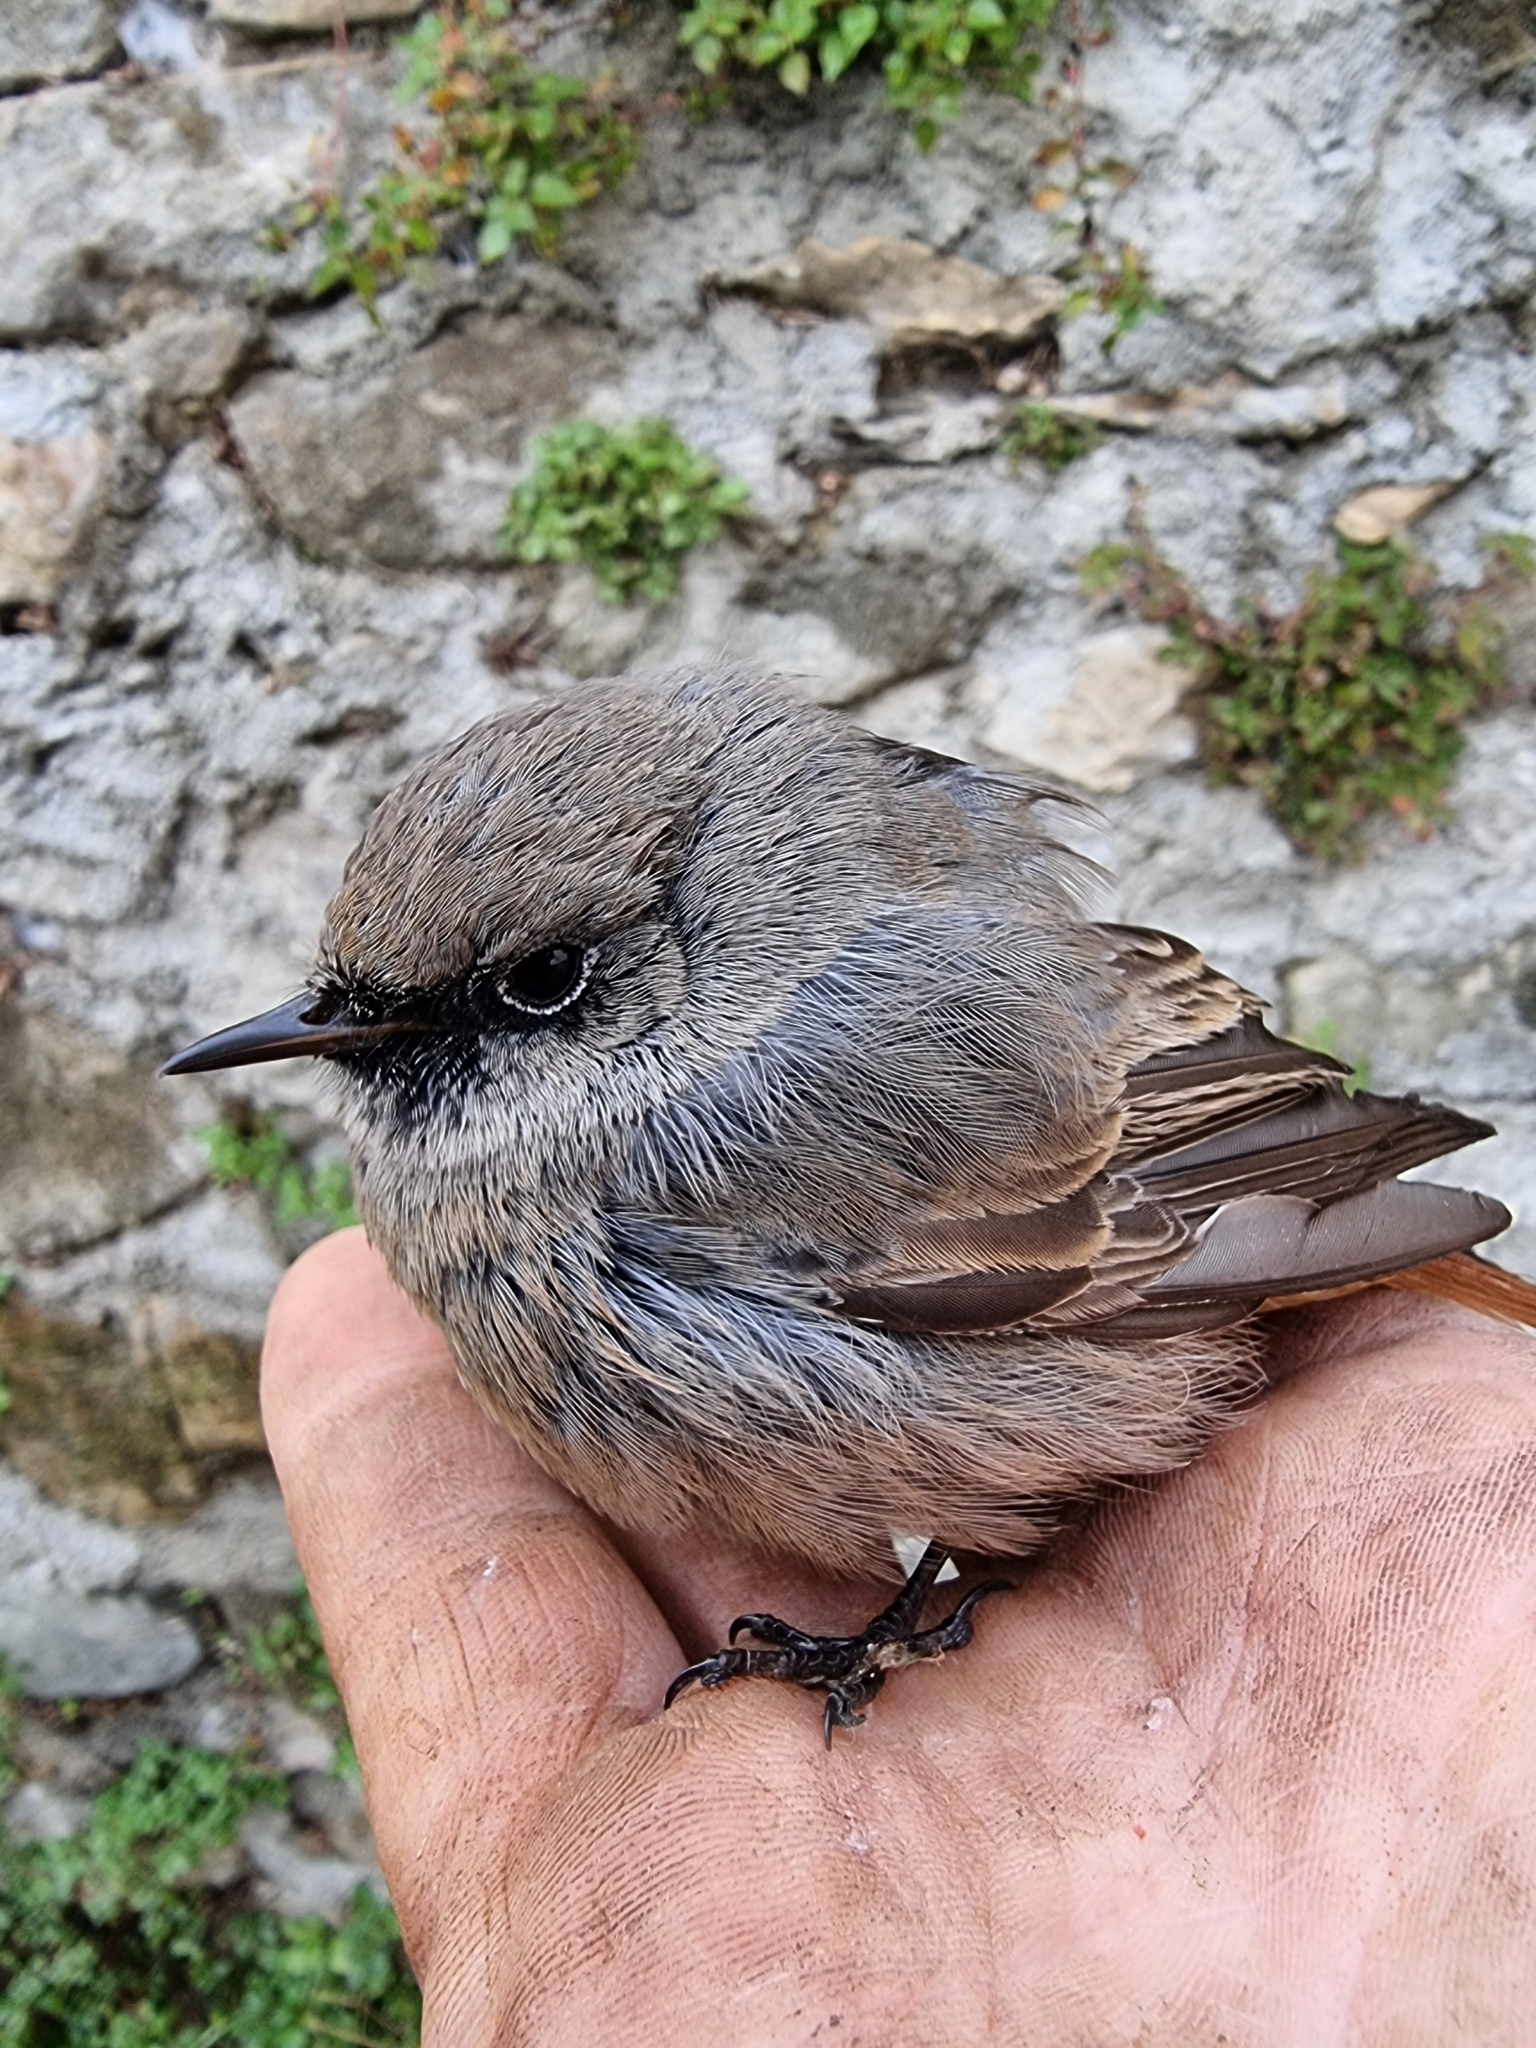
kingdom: Animalia
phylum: Chordata
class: Aves
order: Passeriformes
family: Muscicapidae
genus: Phoenicurus
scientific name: Phoenicurus ochruros
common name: Black redstart
